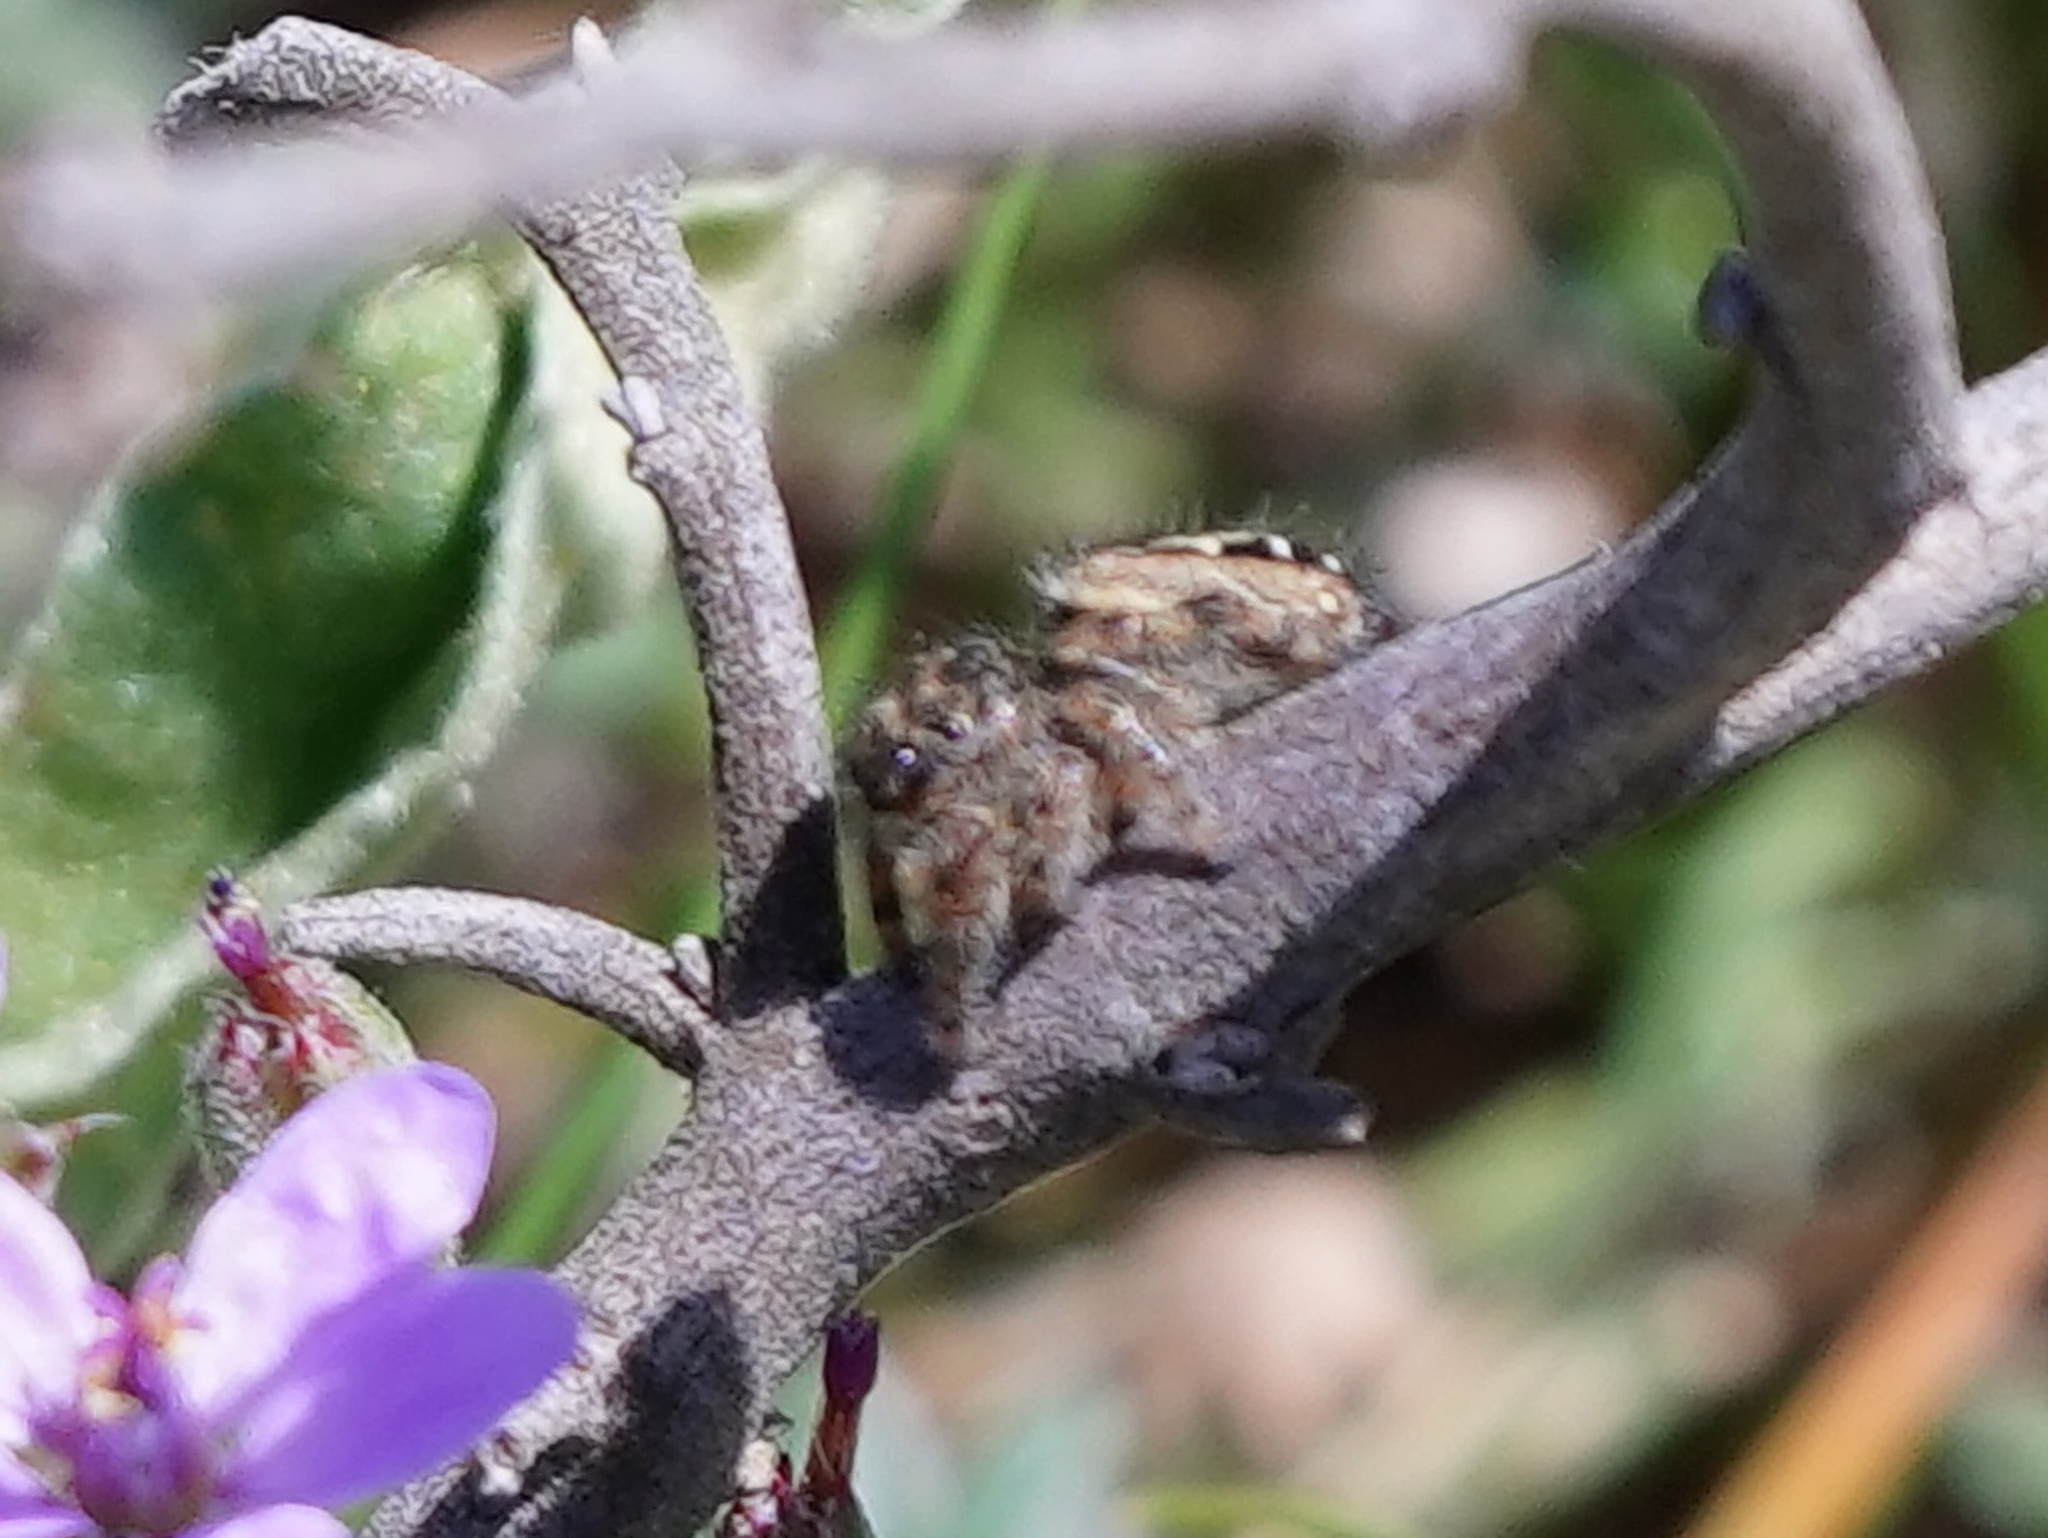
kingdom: Animalia
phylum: Arthropoda
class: Arachnida
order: Araneae
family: Salticidae
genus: Phidippus
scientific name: Phidippus texanus
